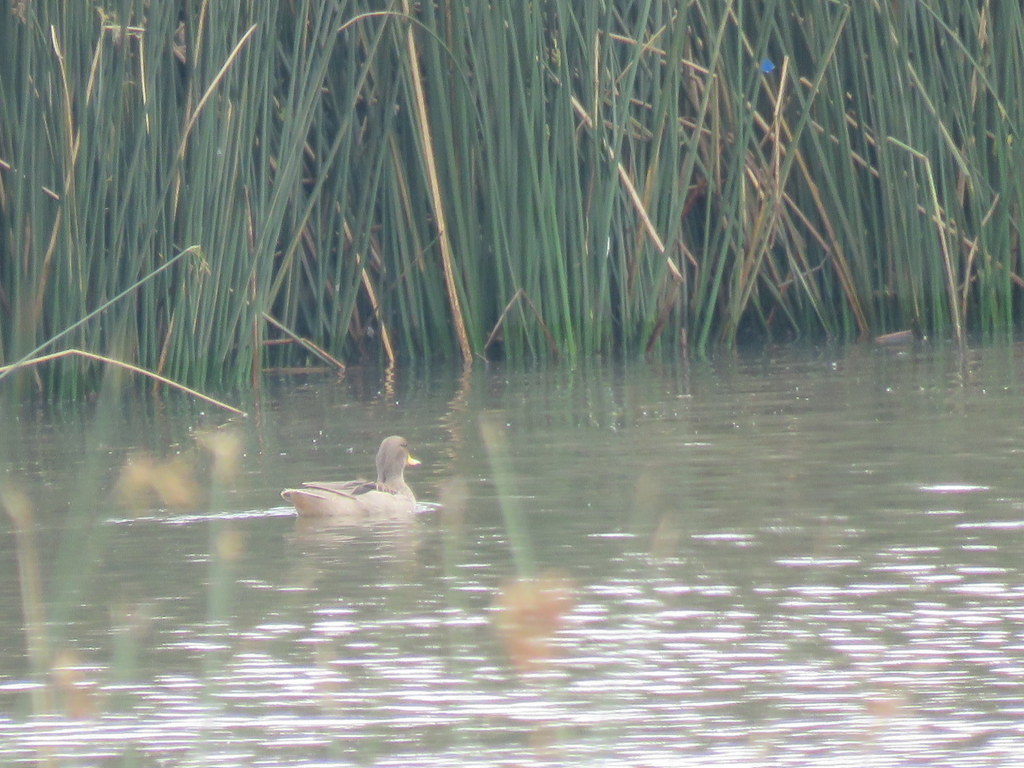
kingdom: Animalia
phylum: Chordata
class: Aves
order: Anseriformes
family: Anatidae
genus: Anas
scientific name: Anas flavirostris
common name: Yellow-billed teal
